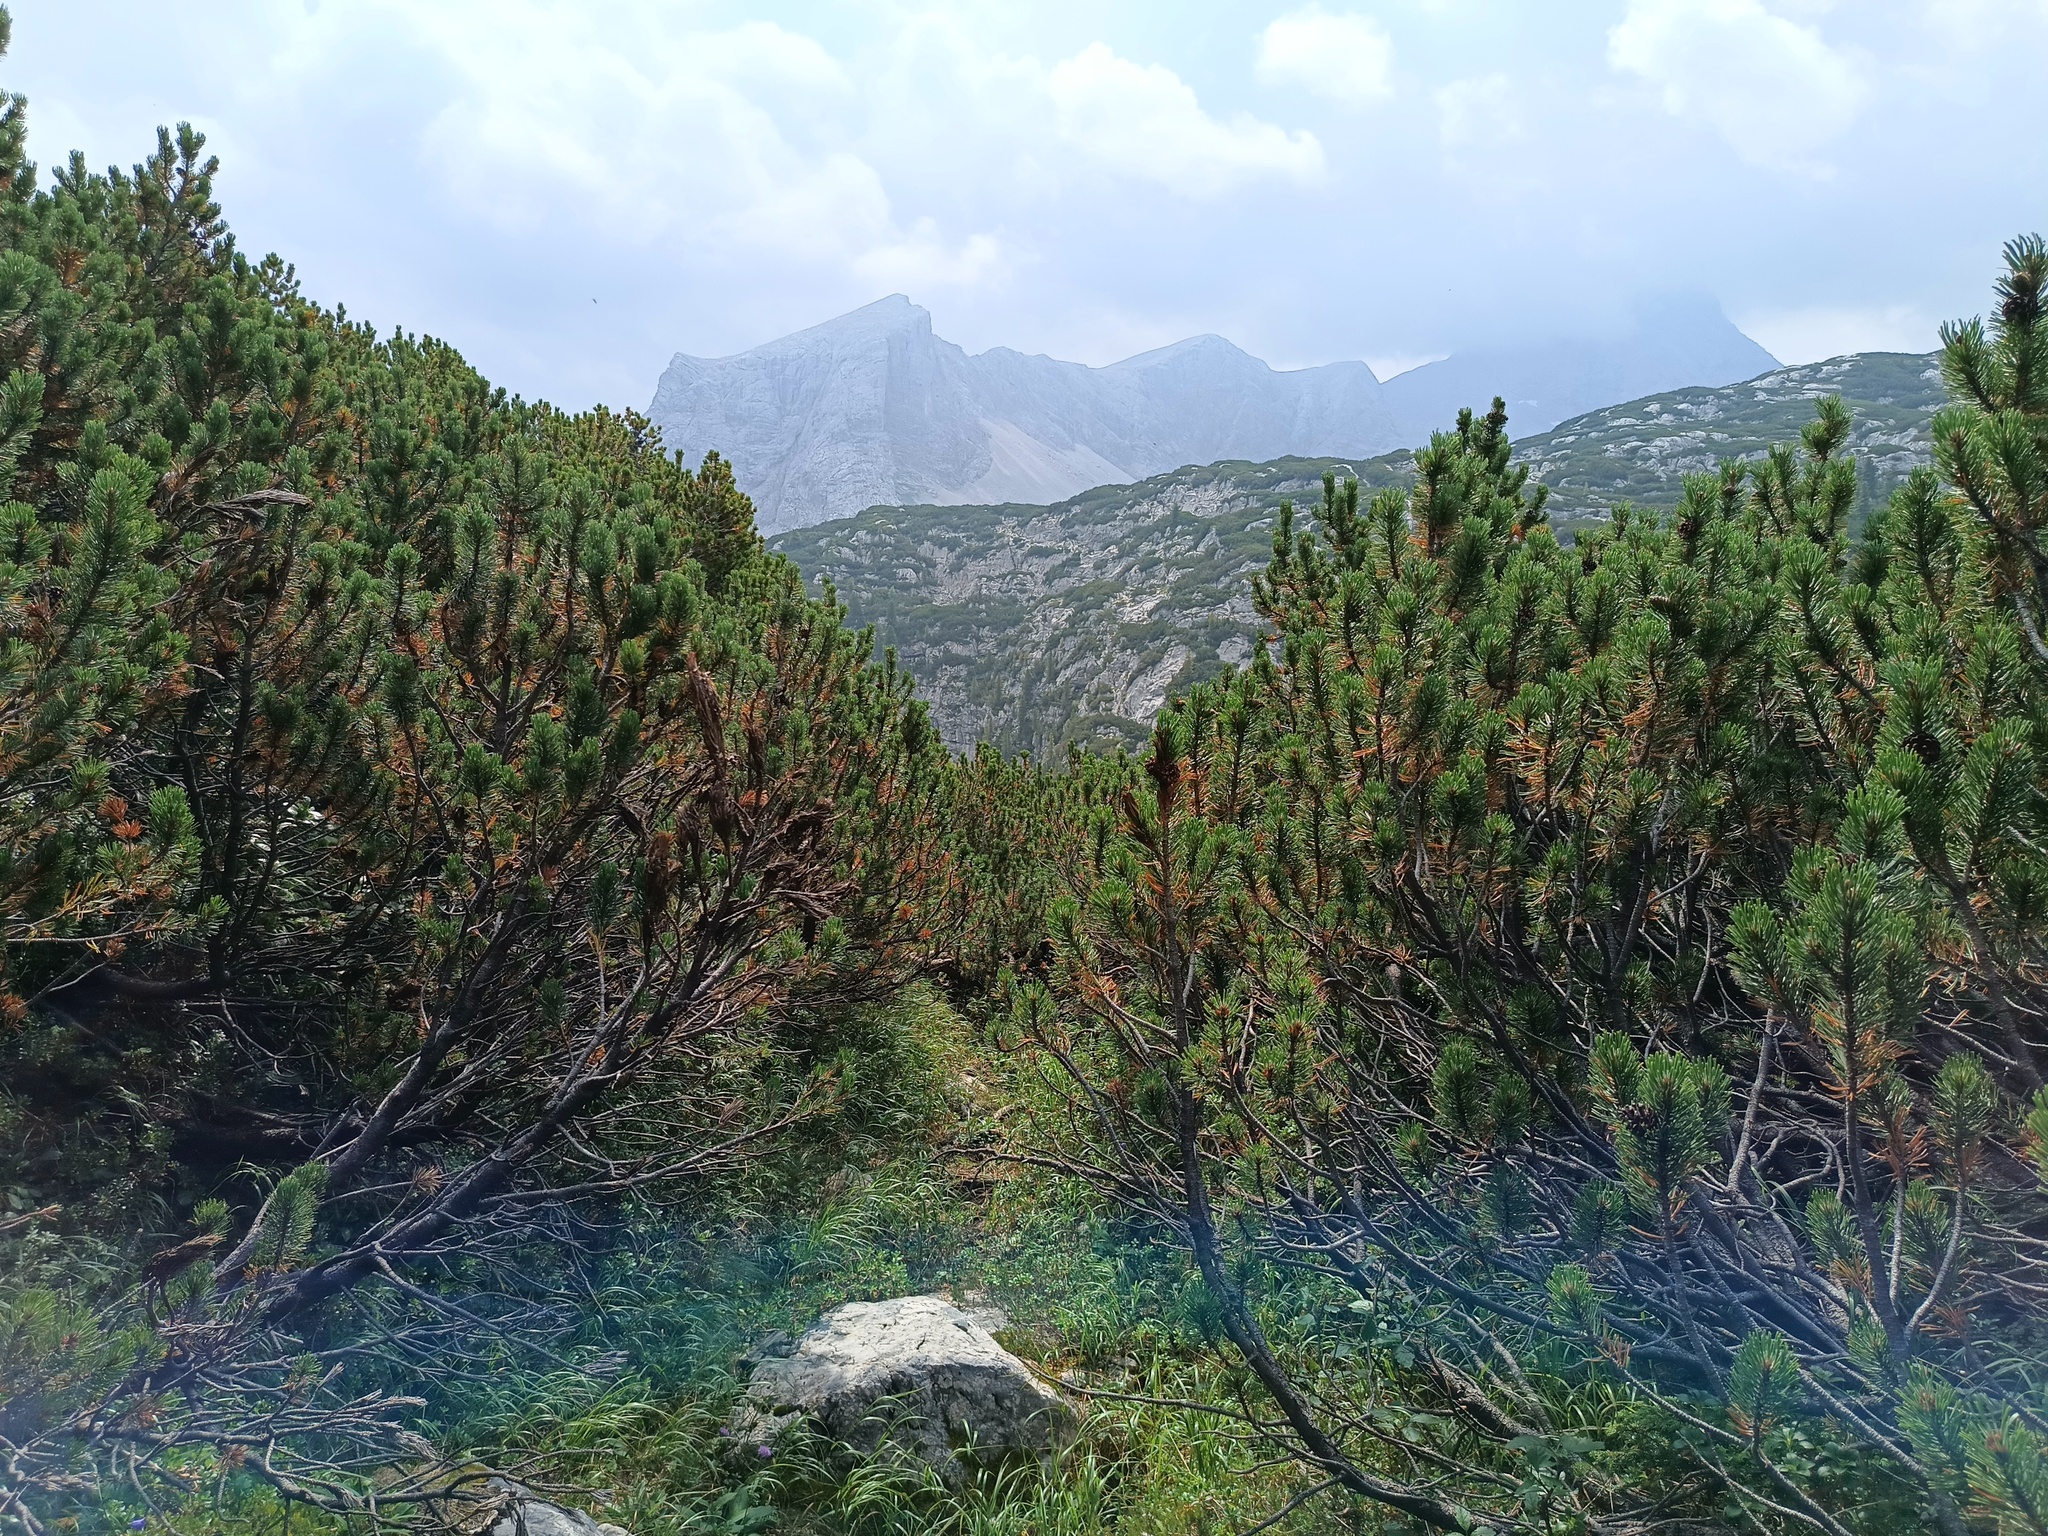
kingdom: Plantae
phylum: Tracheophyta
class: Pinopsida
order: Pinales
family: Pinaceae
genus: Pinus
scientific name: Pinus mugo
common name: Mugo pine
